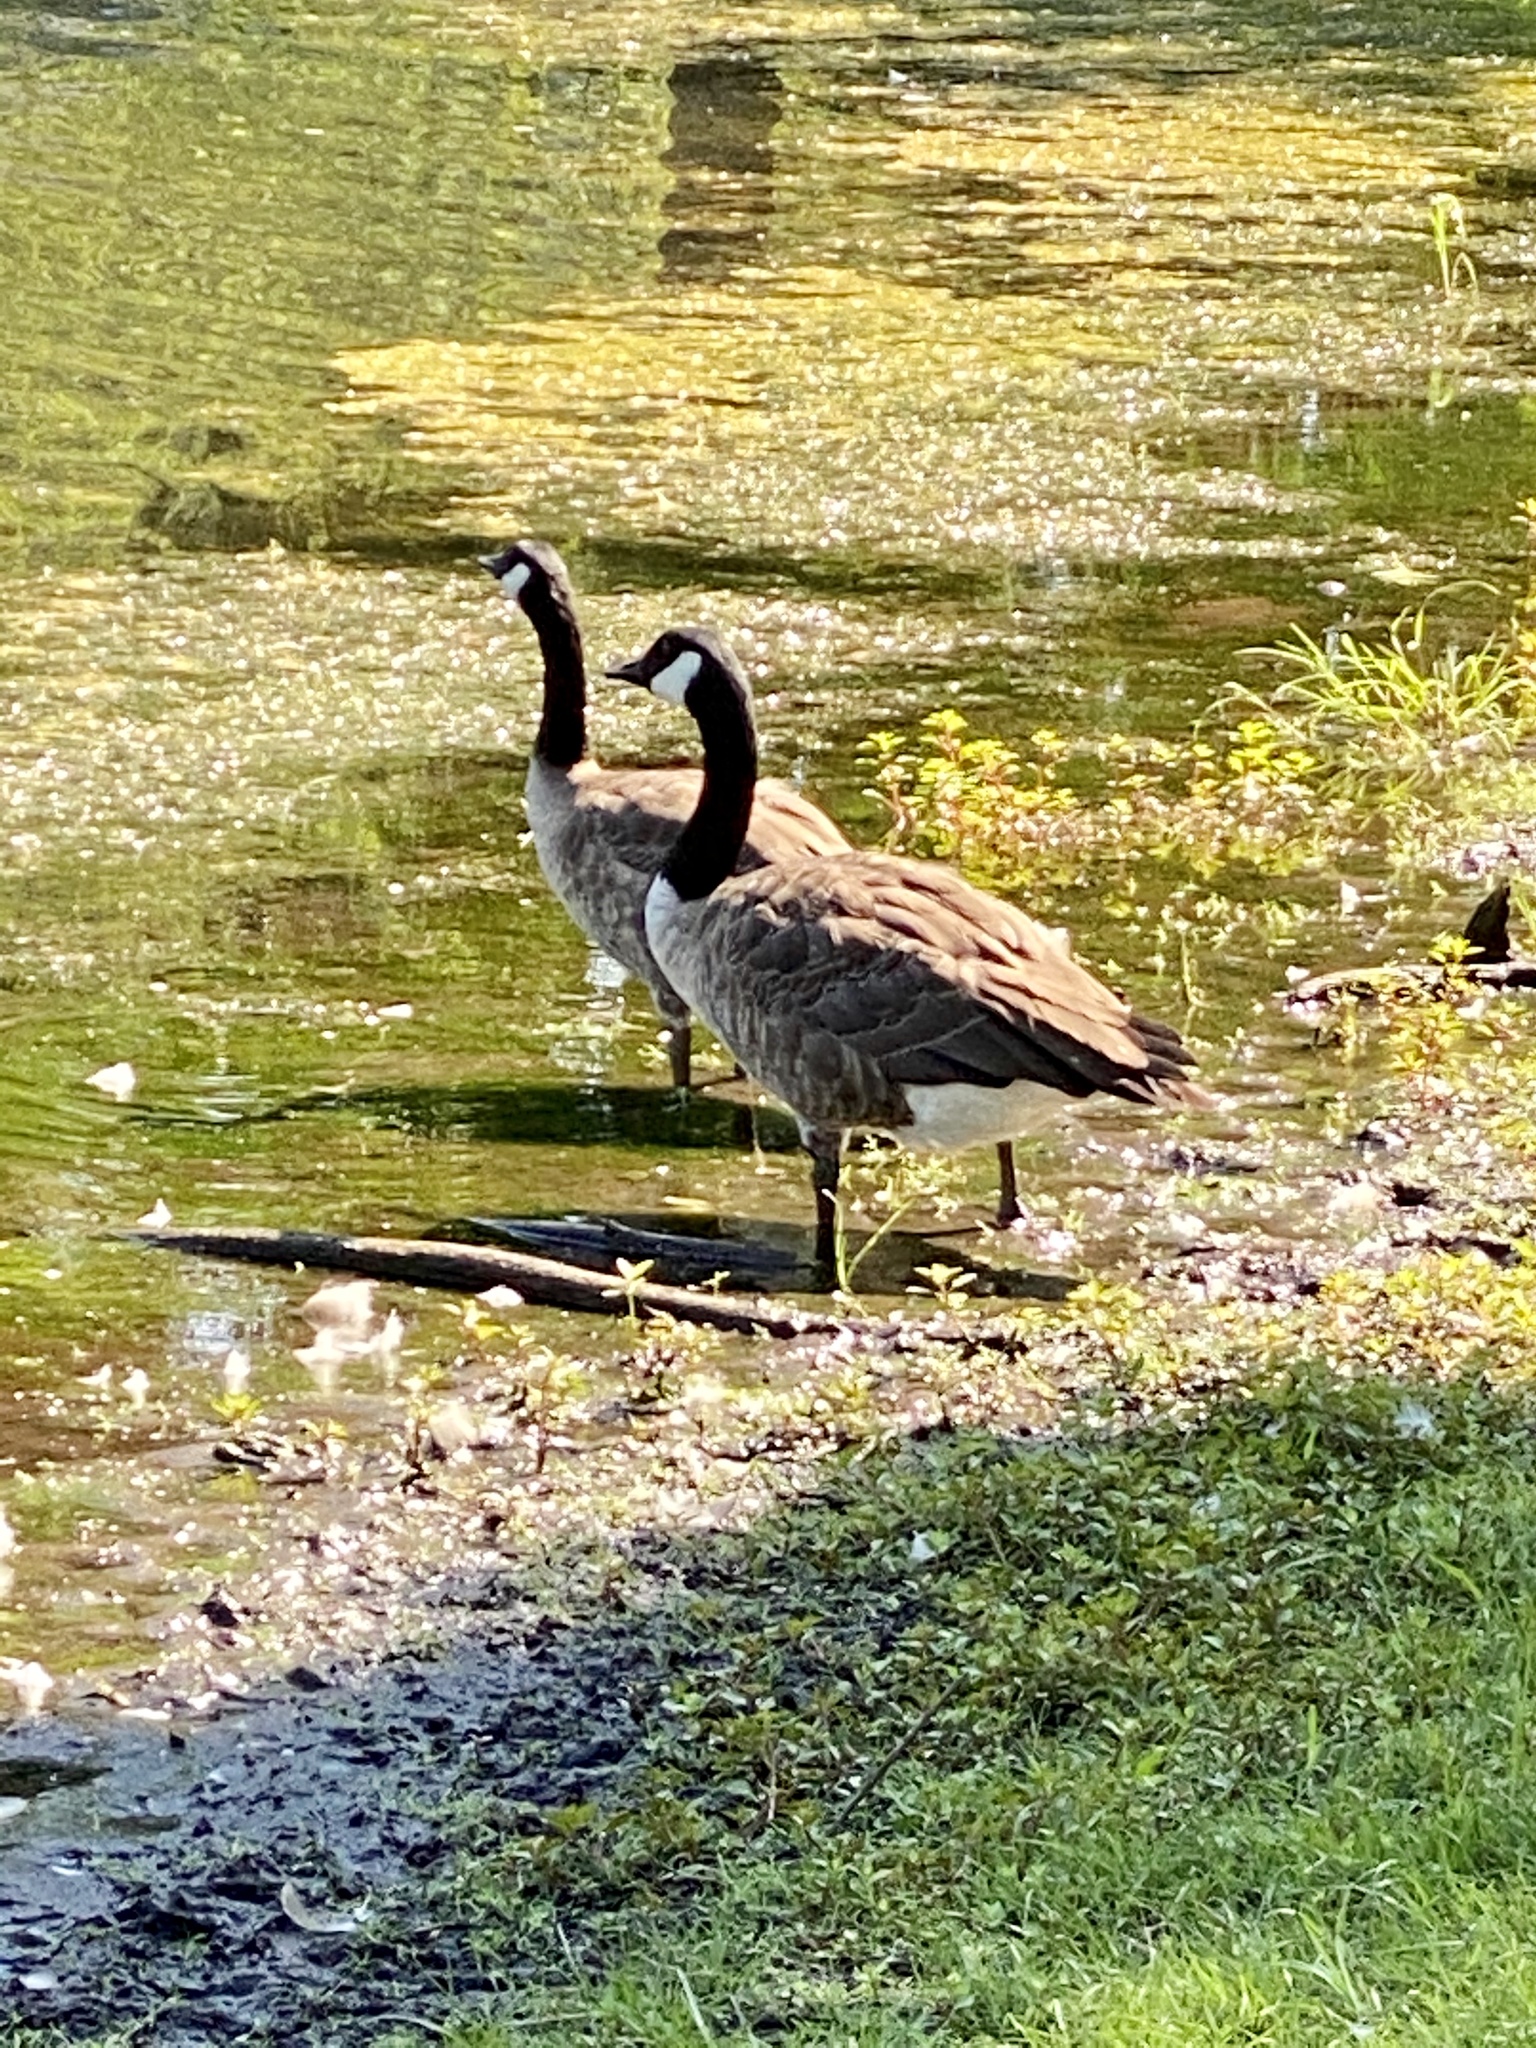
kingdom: Animalia
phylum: Chordata
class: Aves
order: Anseriformes
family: Anatidae
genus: Branta
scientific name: Branta canadensis
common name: Canada goose
